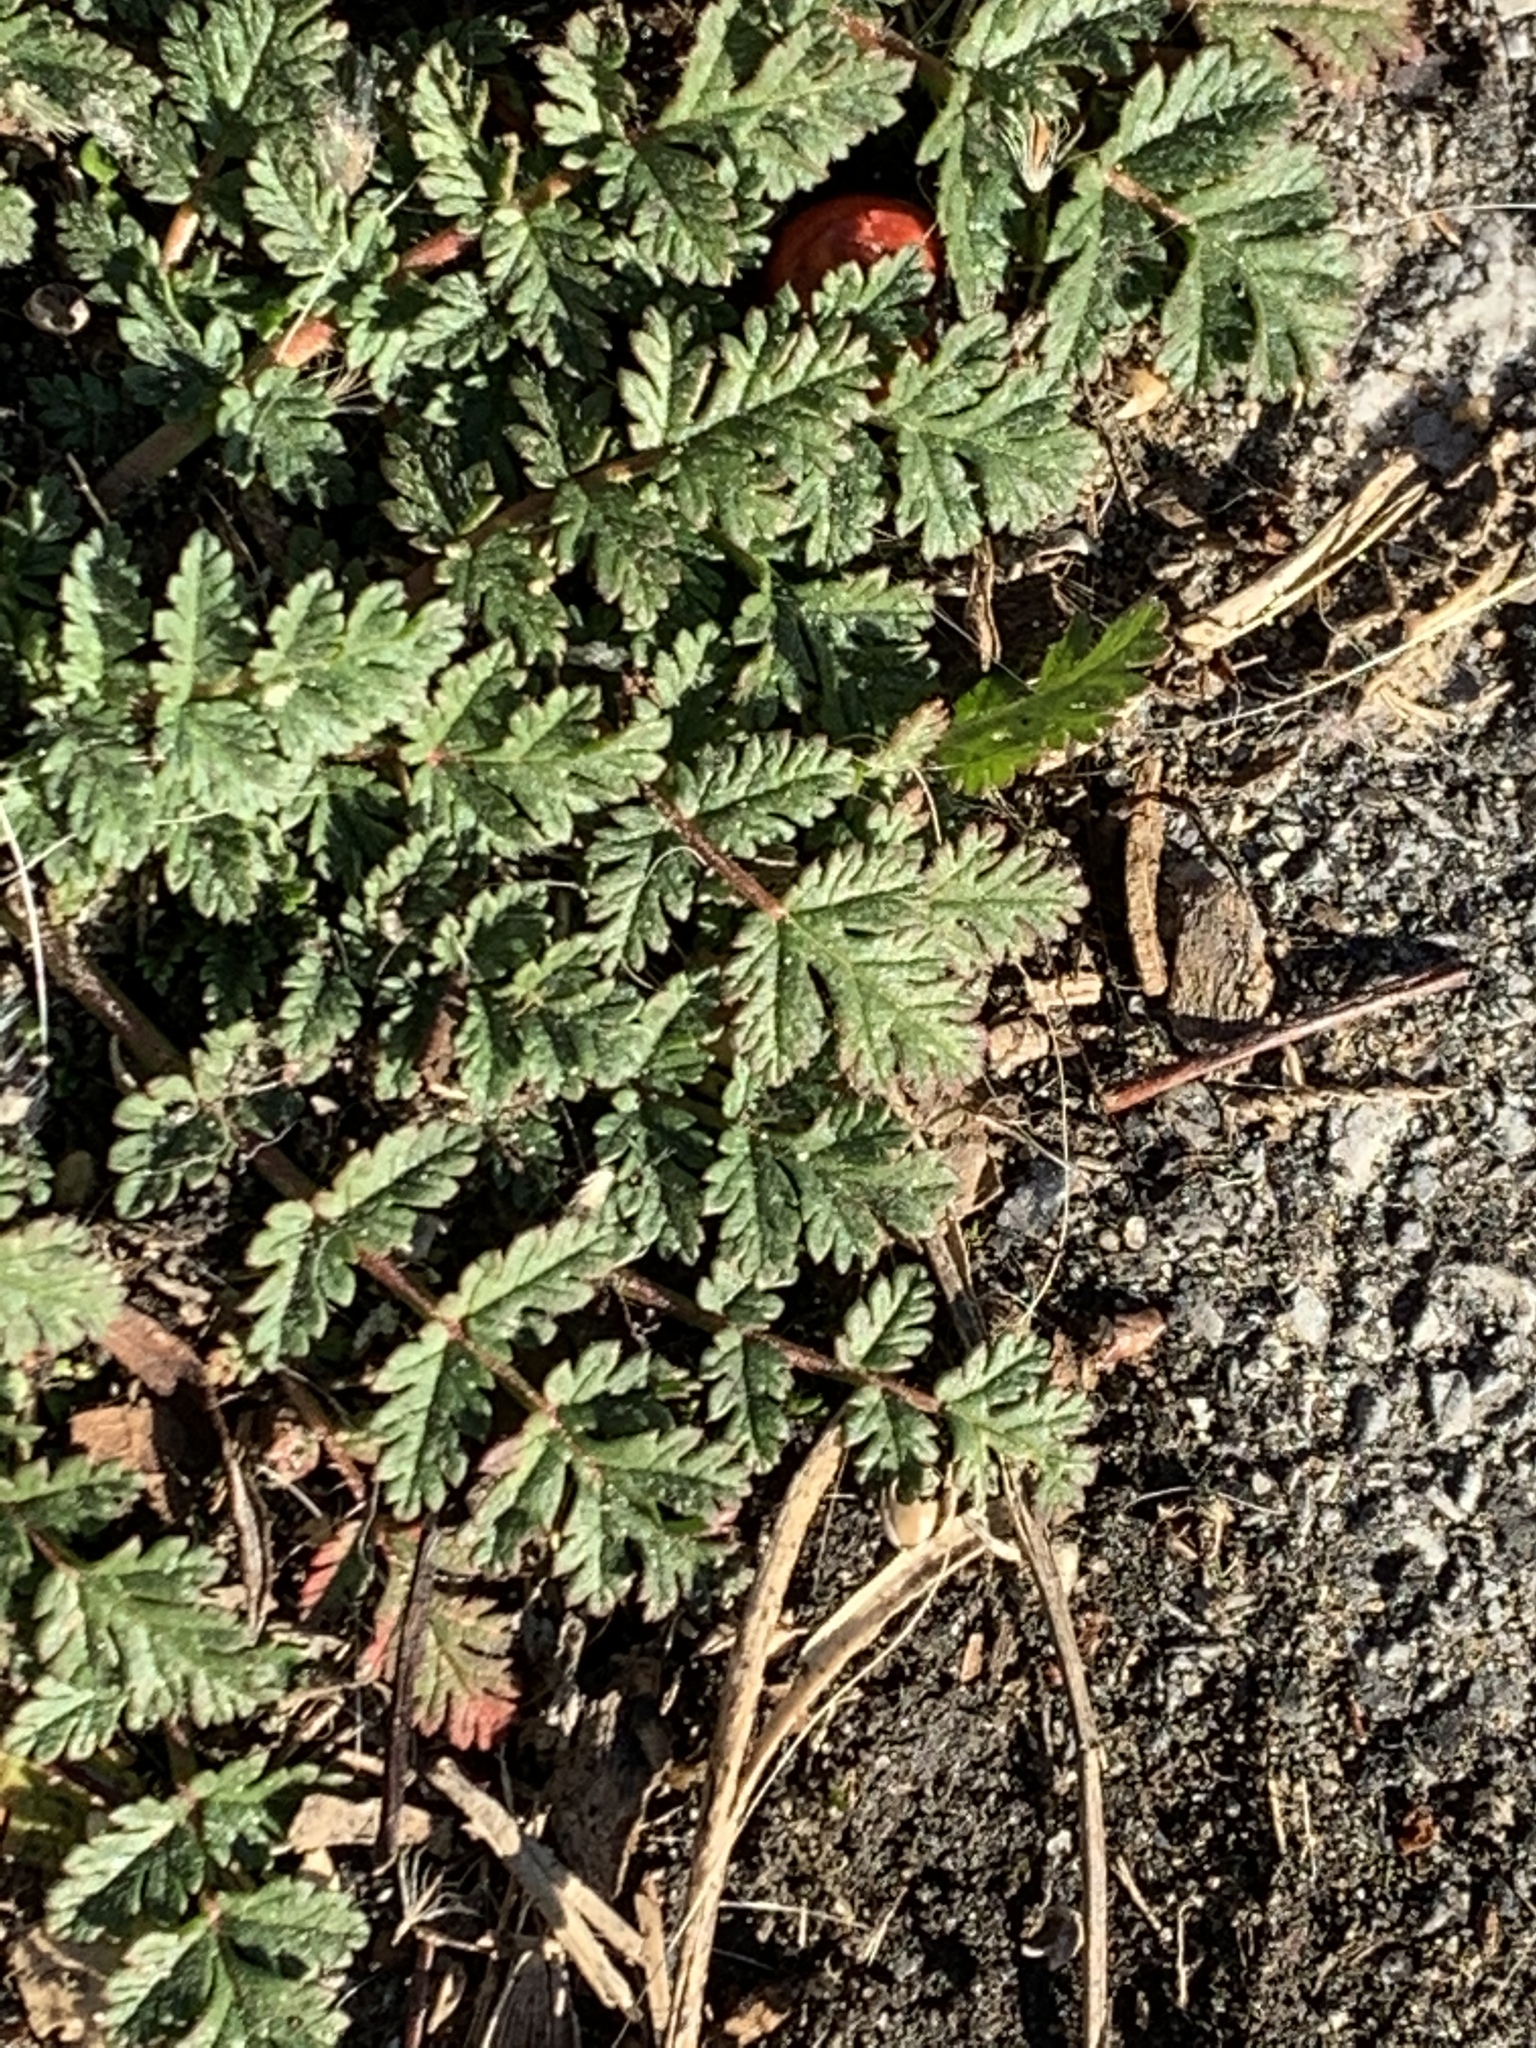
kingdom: Plantae
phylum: Tracheophyta
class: Magnoliopsida
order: Geraniales
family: Geraniaceae
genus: Erodium
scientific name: Erodium cicutarium
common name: Common stork's-bill
